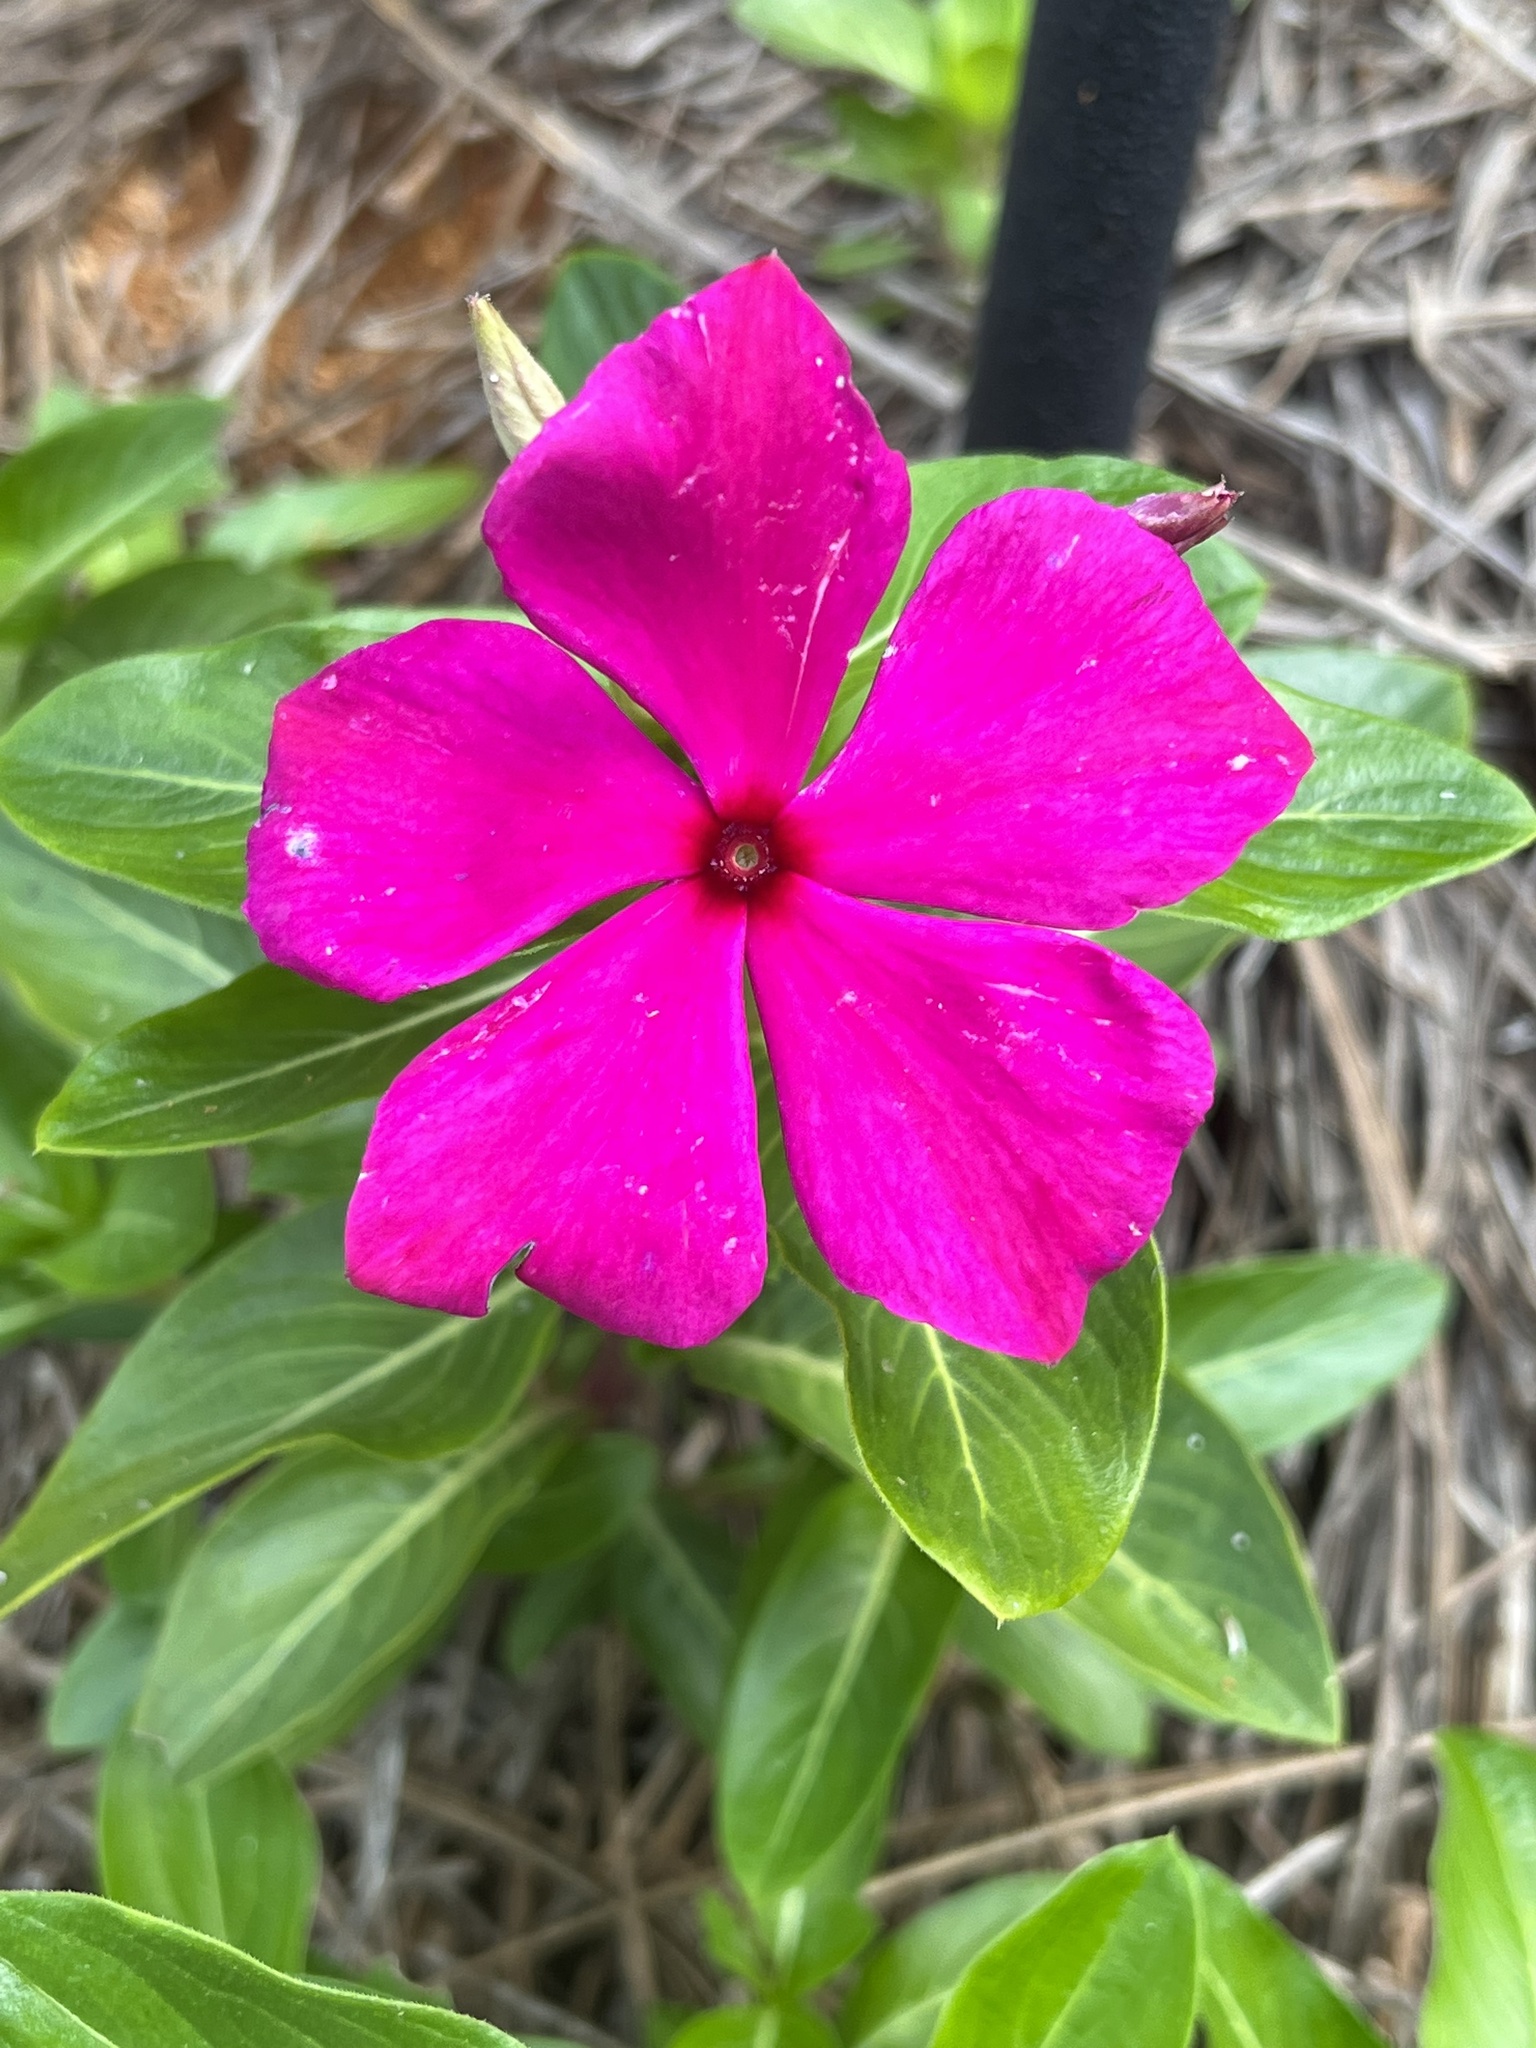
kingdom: Plantae
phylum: Tracheophyta
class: Magnoliopsida
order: Gentianales
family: Apocynaceae
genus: Catharanthus
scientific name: Catharanthus roseus
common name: Madagascar periwinkle
